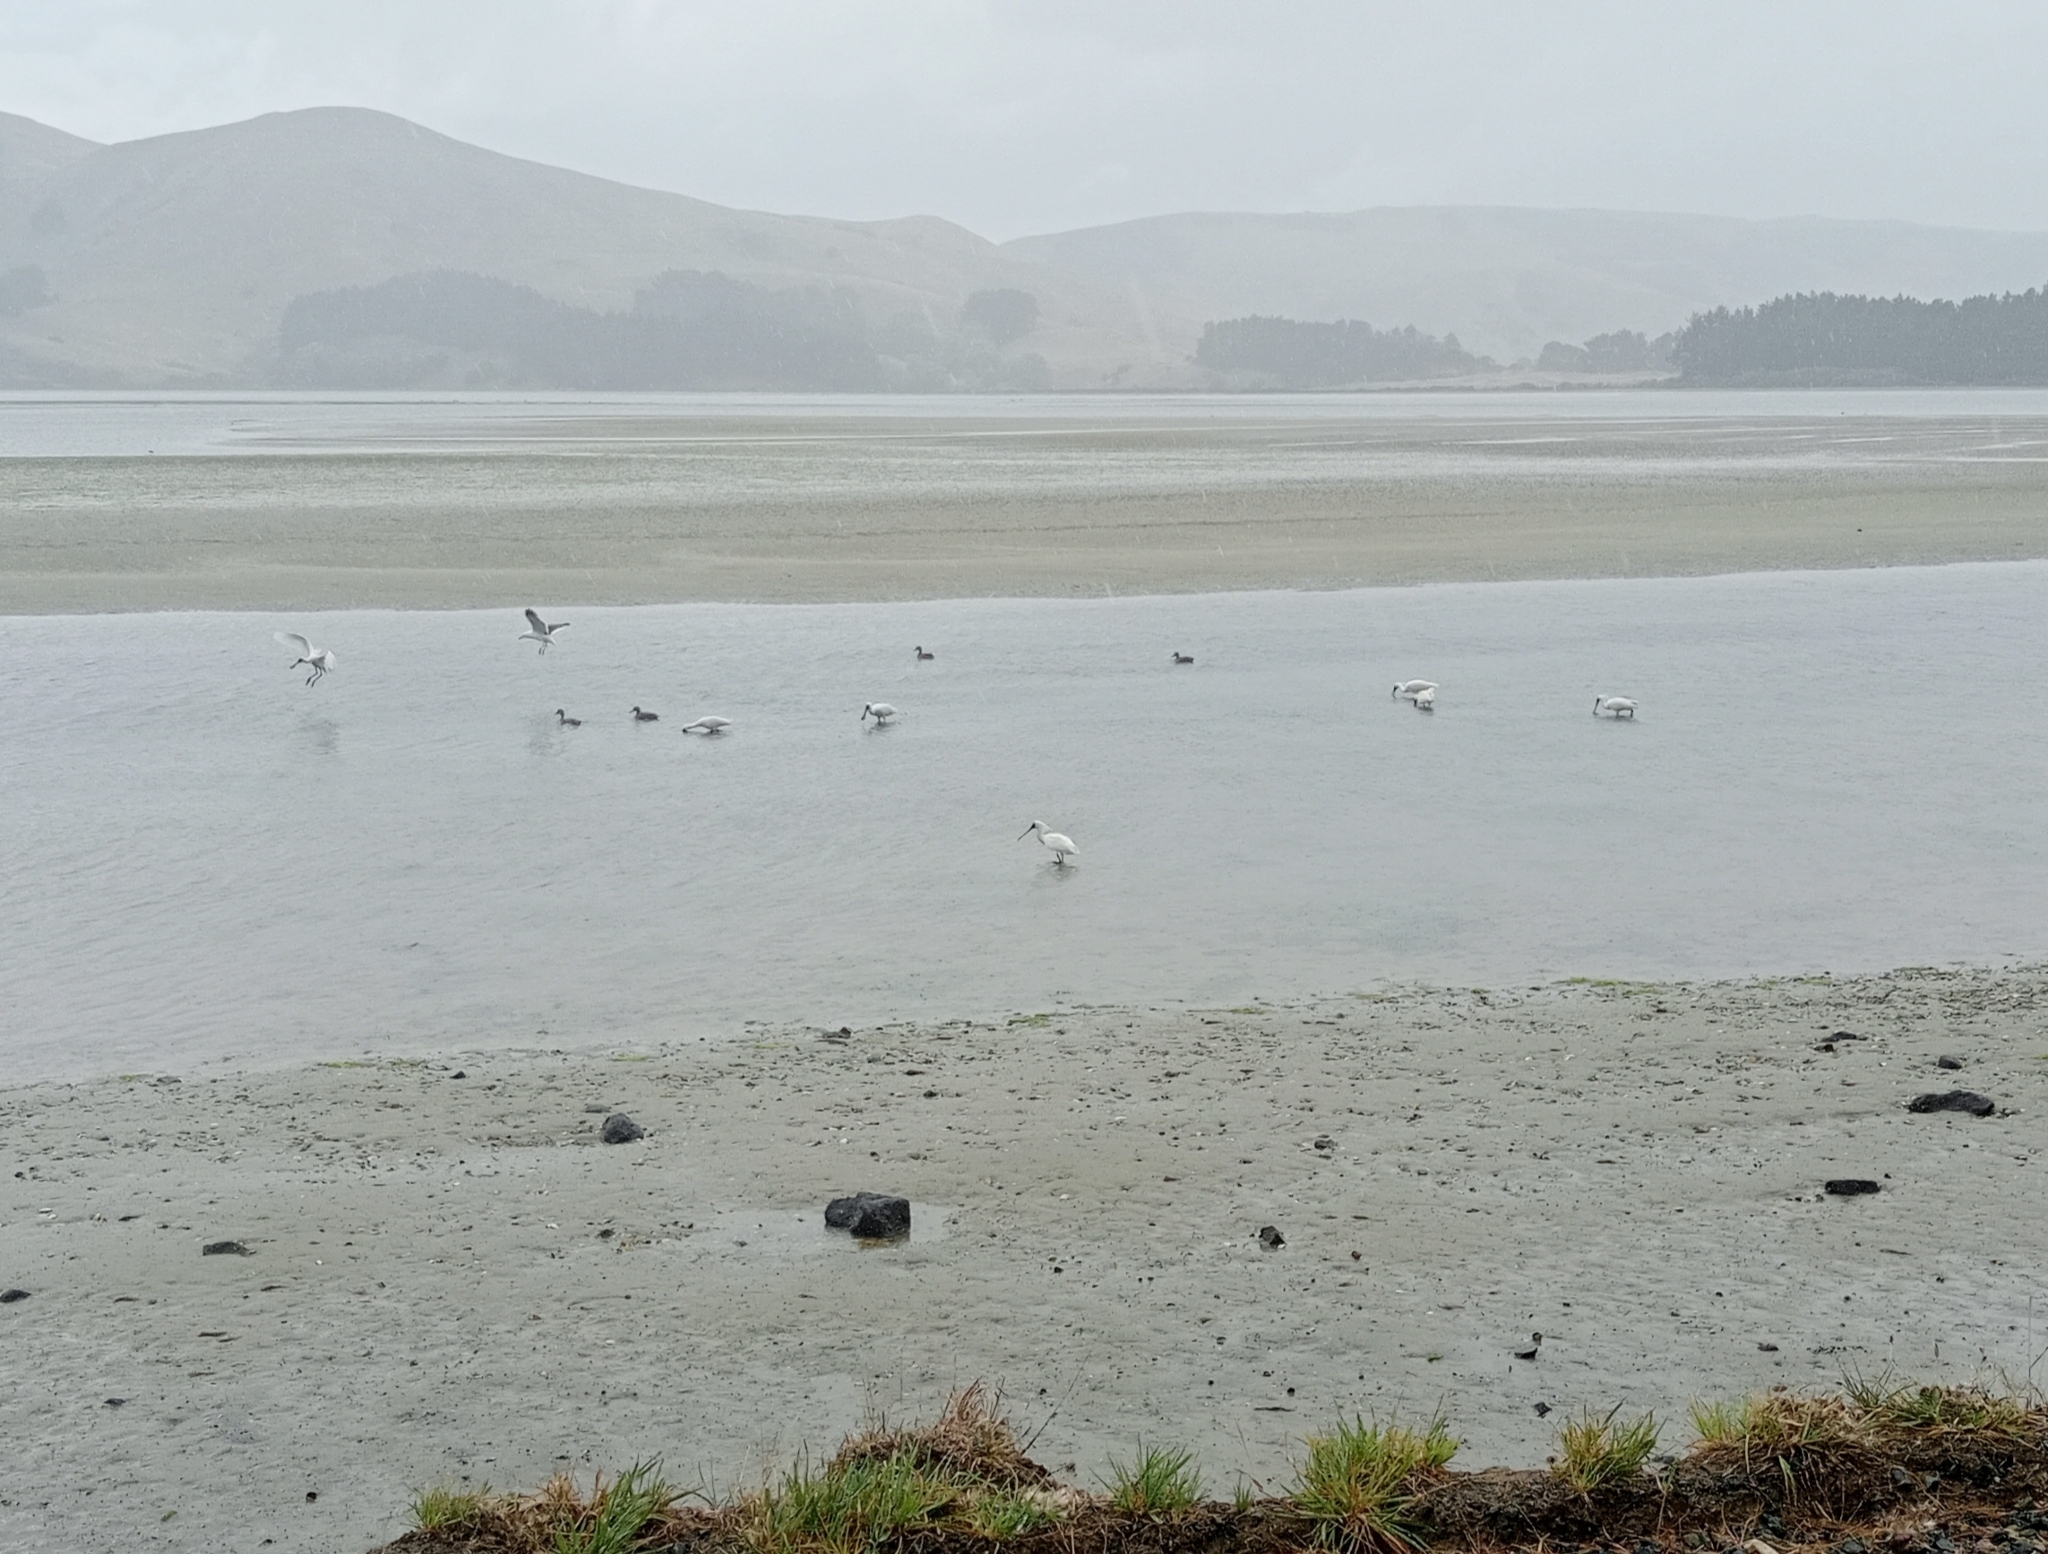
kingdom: Animalia
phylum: Chordata
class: Aves
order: Pelecaniformes
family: Threskiornithidae
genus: Platalea
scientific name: Platalea regia
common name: Royal spoonbill
